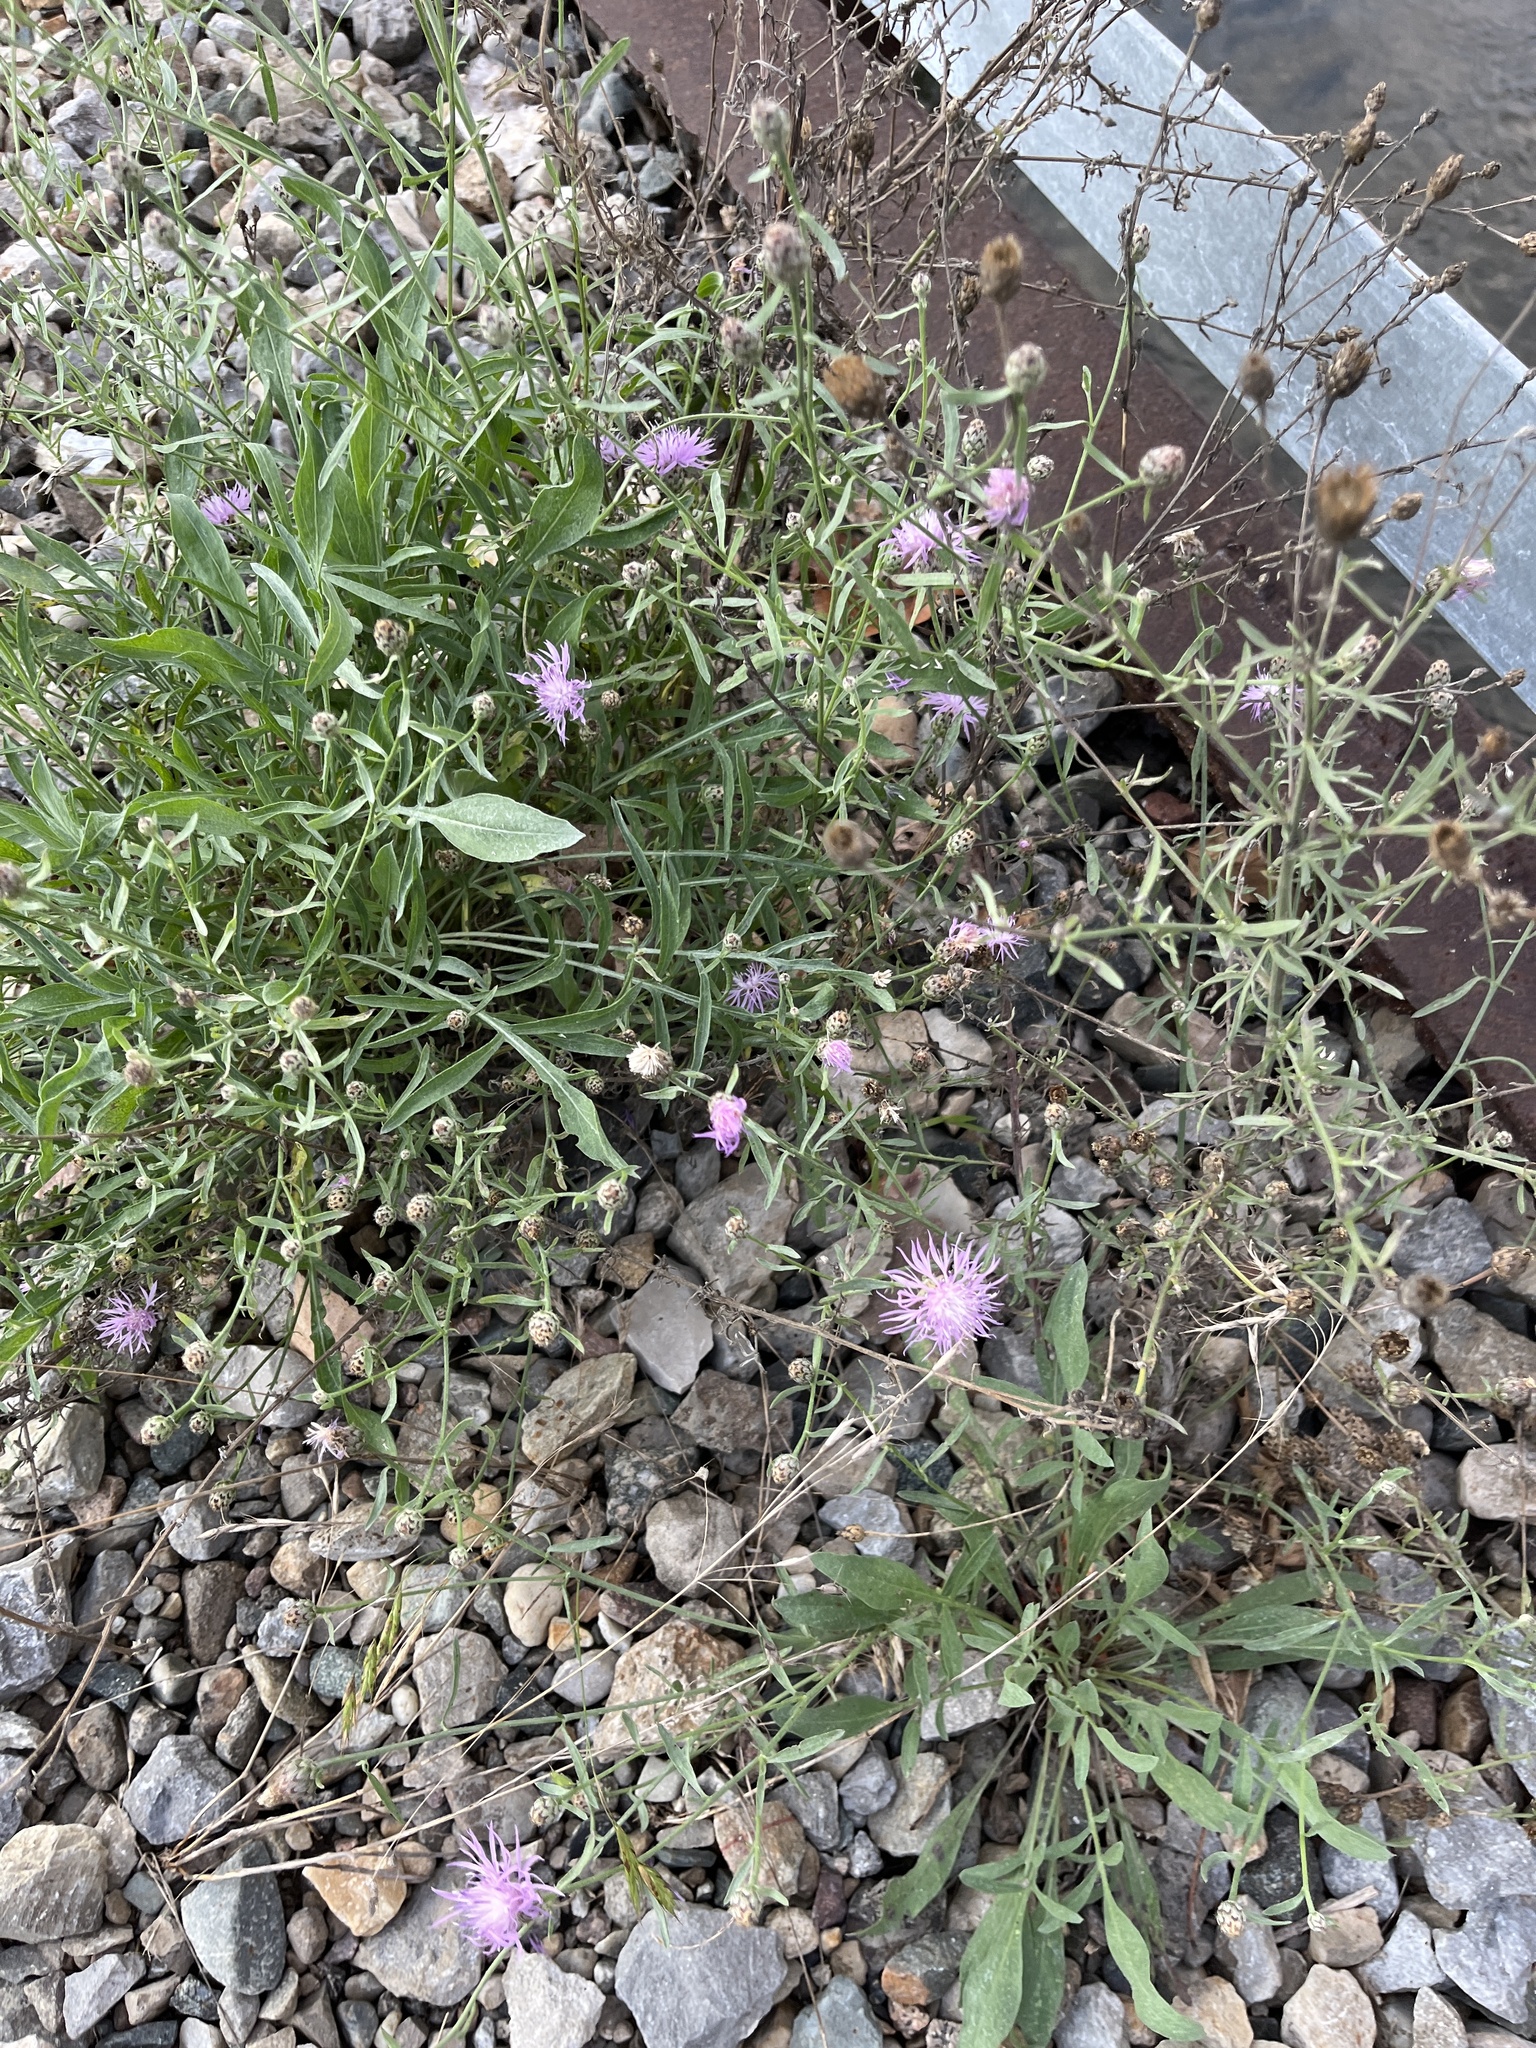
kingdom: Plantae
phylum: Tracheophyta
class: Magnoliopsida
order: Asterales
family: Asteraceae
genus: Centaurea
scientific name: Centaurea stoebe
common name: Spotted knapweed
